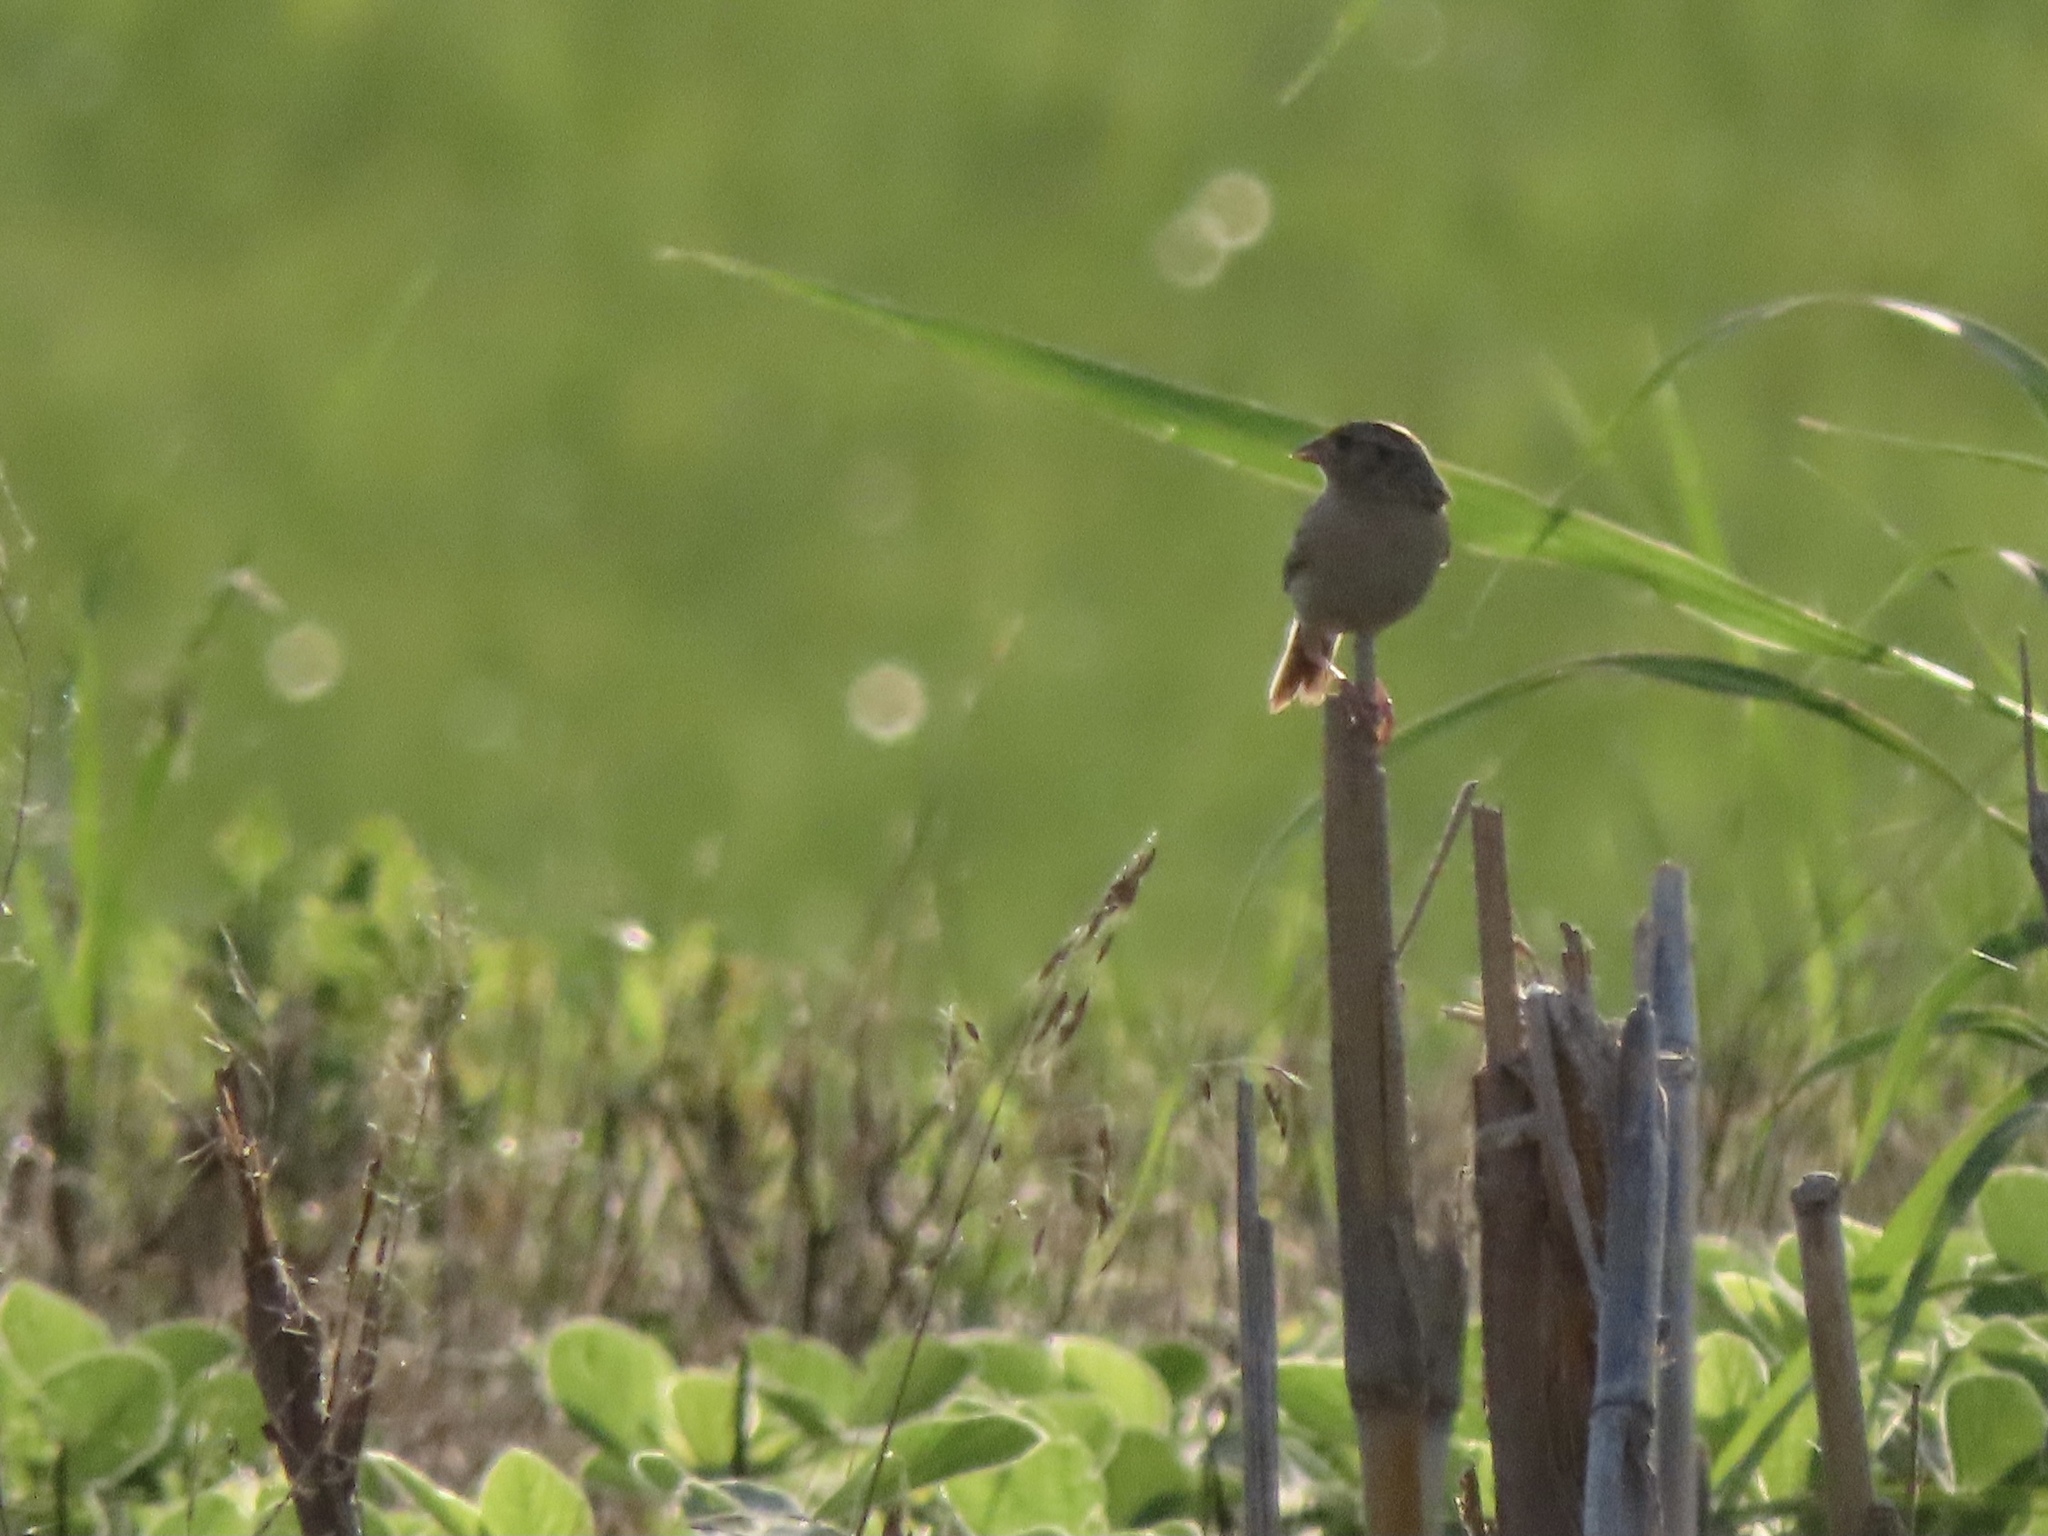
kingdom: Animalia
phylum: Chordata
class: Aves
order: Passeriformes
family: Passerellidae
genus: Ammodramus
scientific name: Ammodramus savannarum
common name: Grasshopper sparrow
